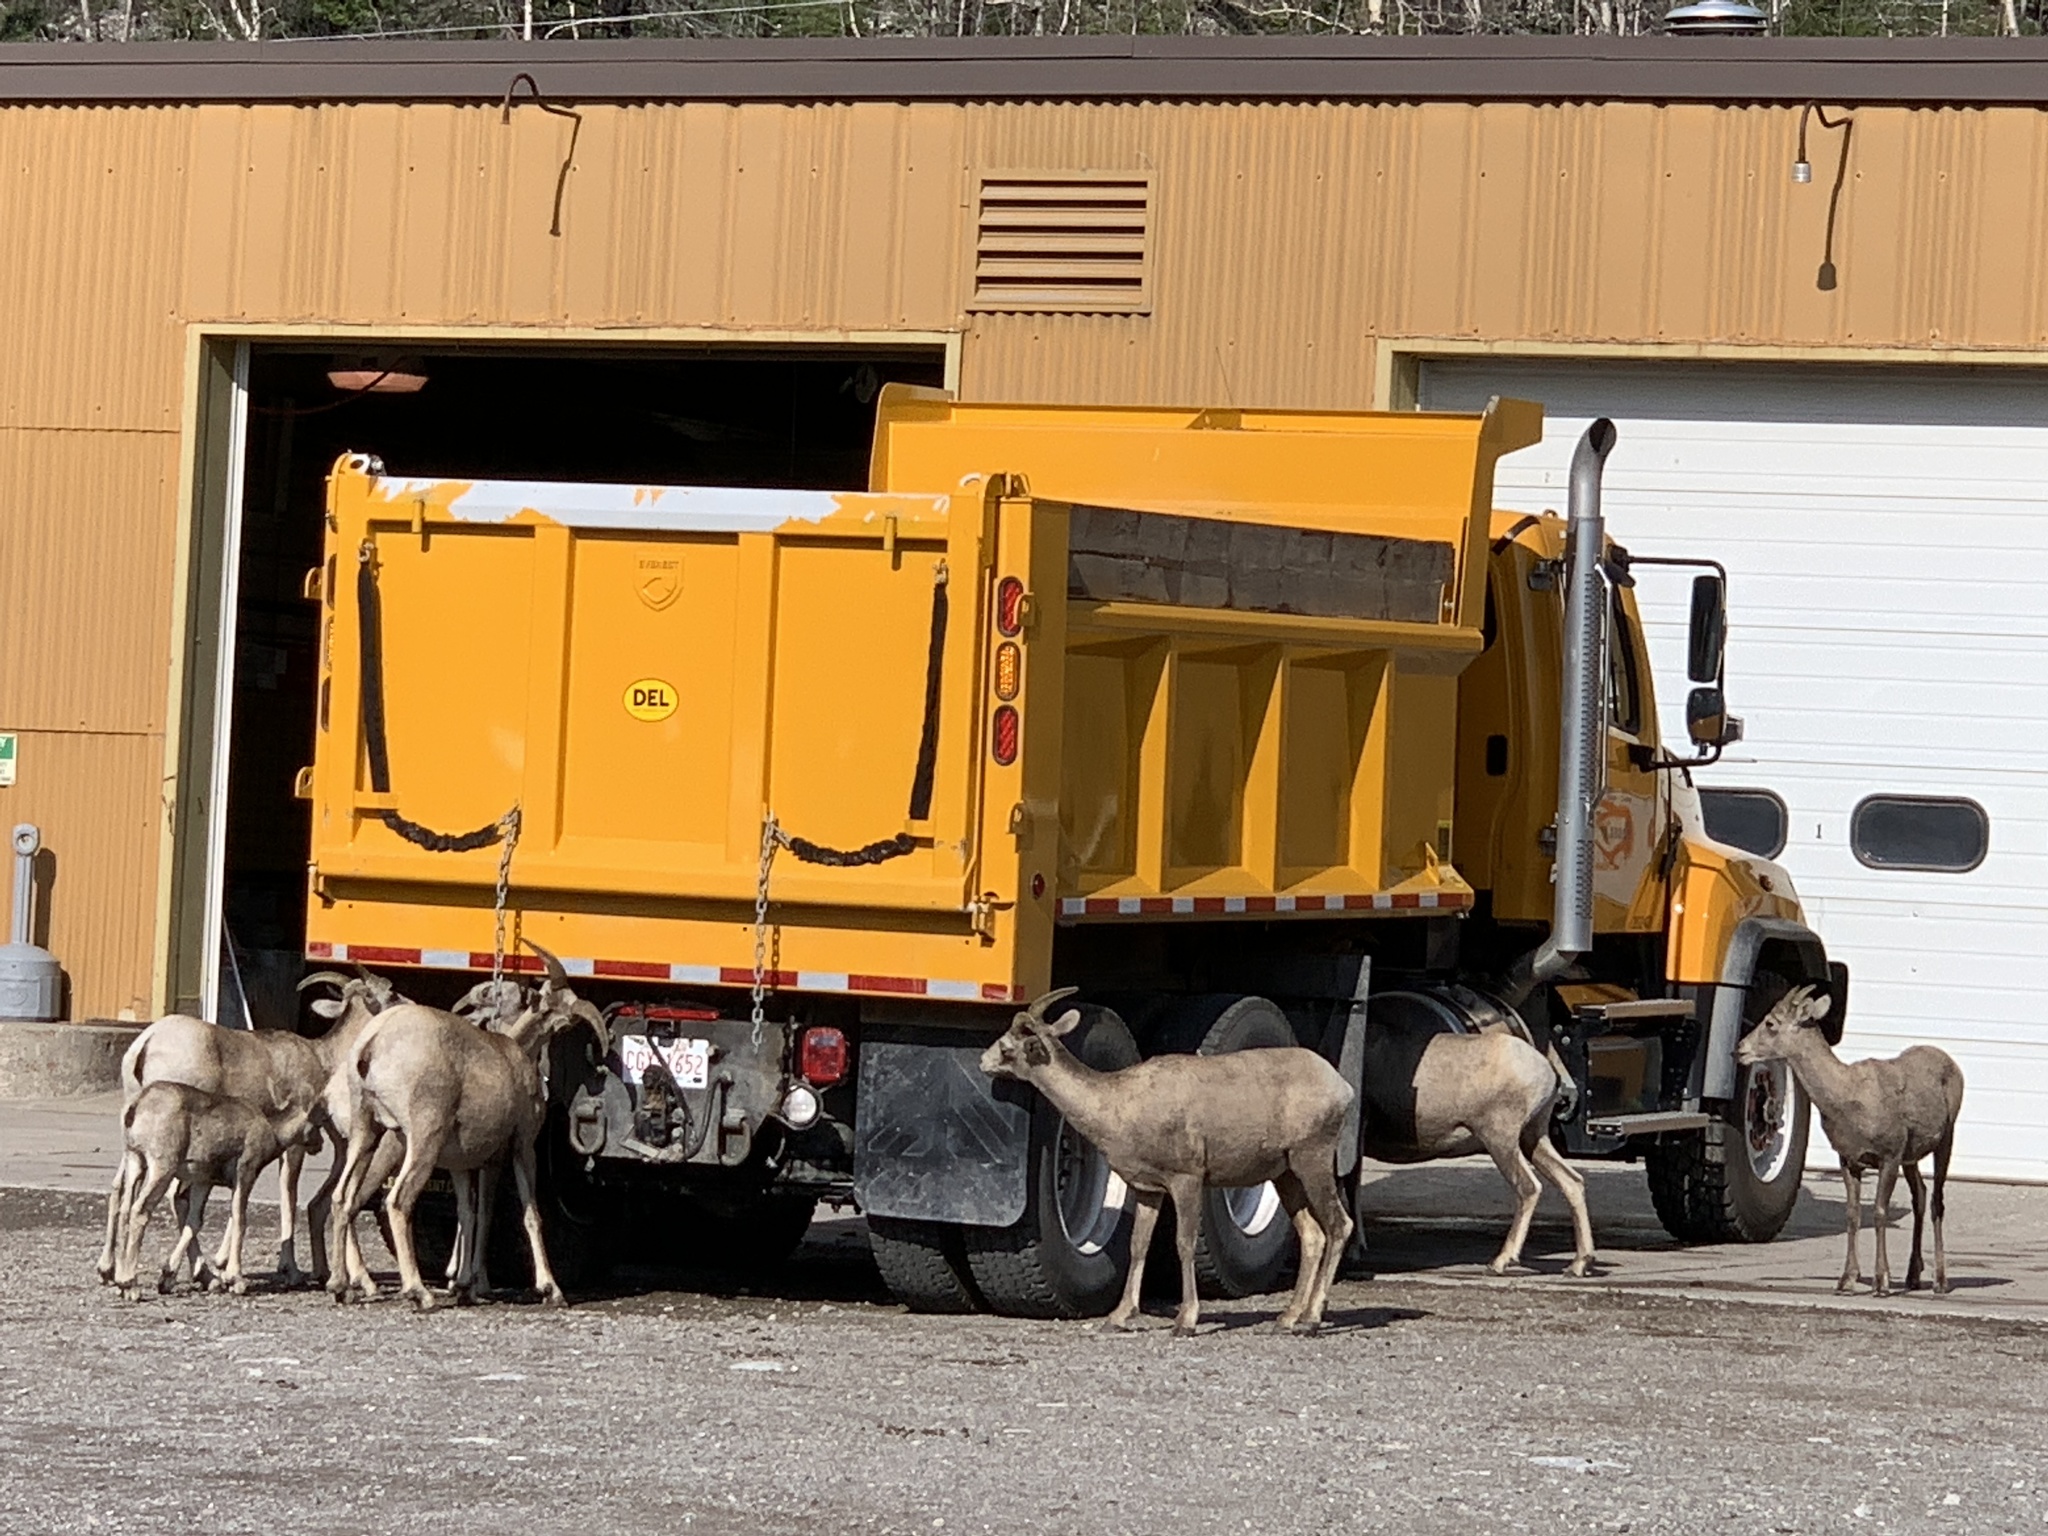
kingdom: Animalia
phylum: Chordata
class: Mammalia
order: Artiodactyla
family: Bovidae
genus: Ovis
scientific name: Ovis canadensis
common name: Bighorn sheep
